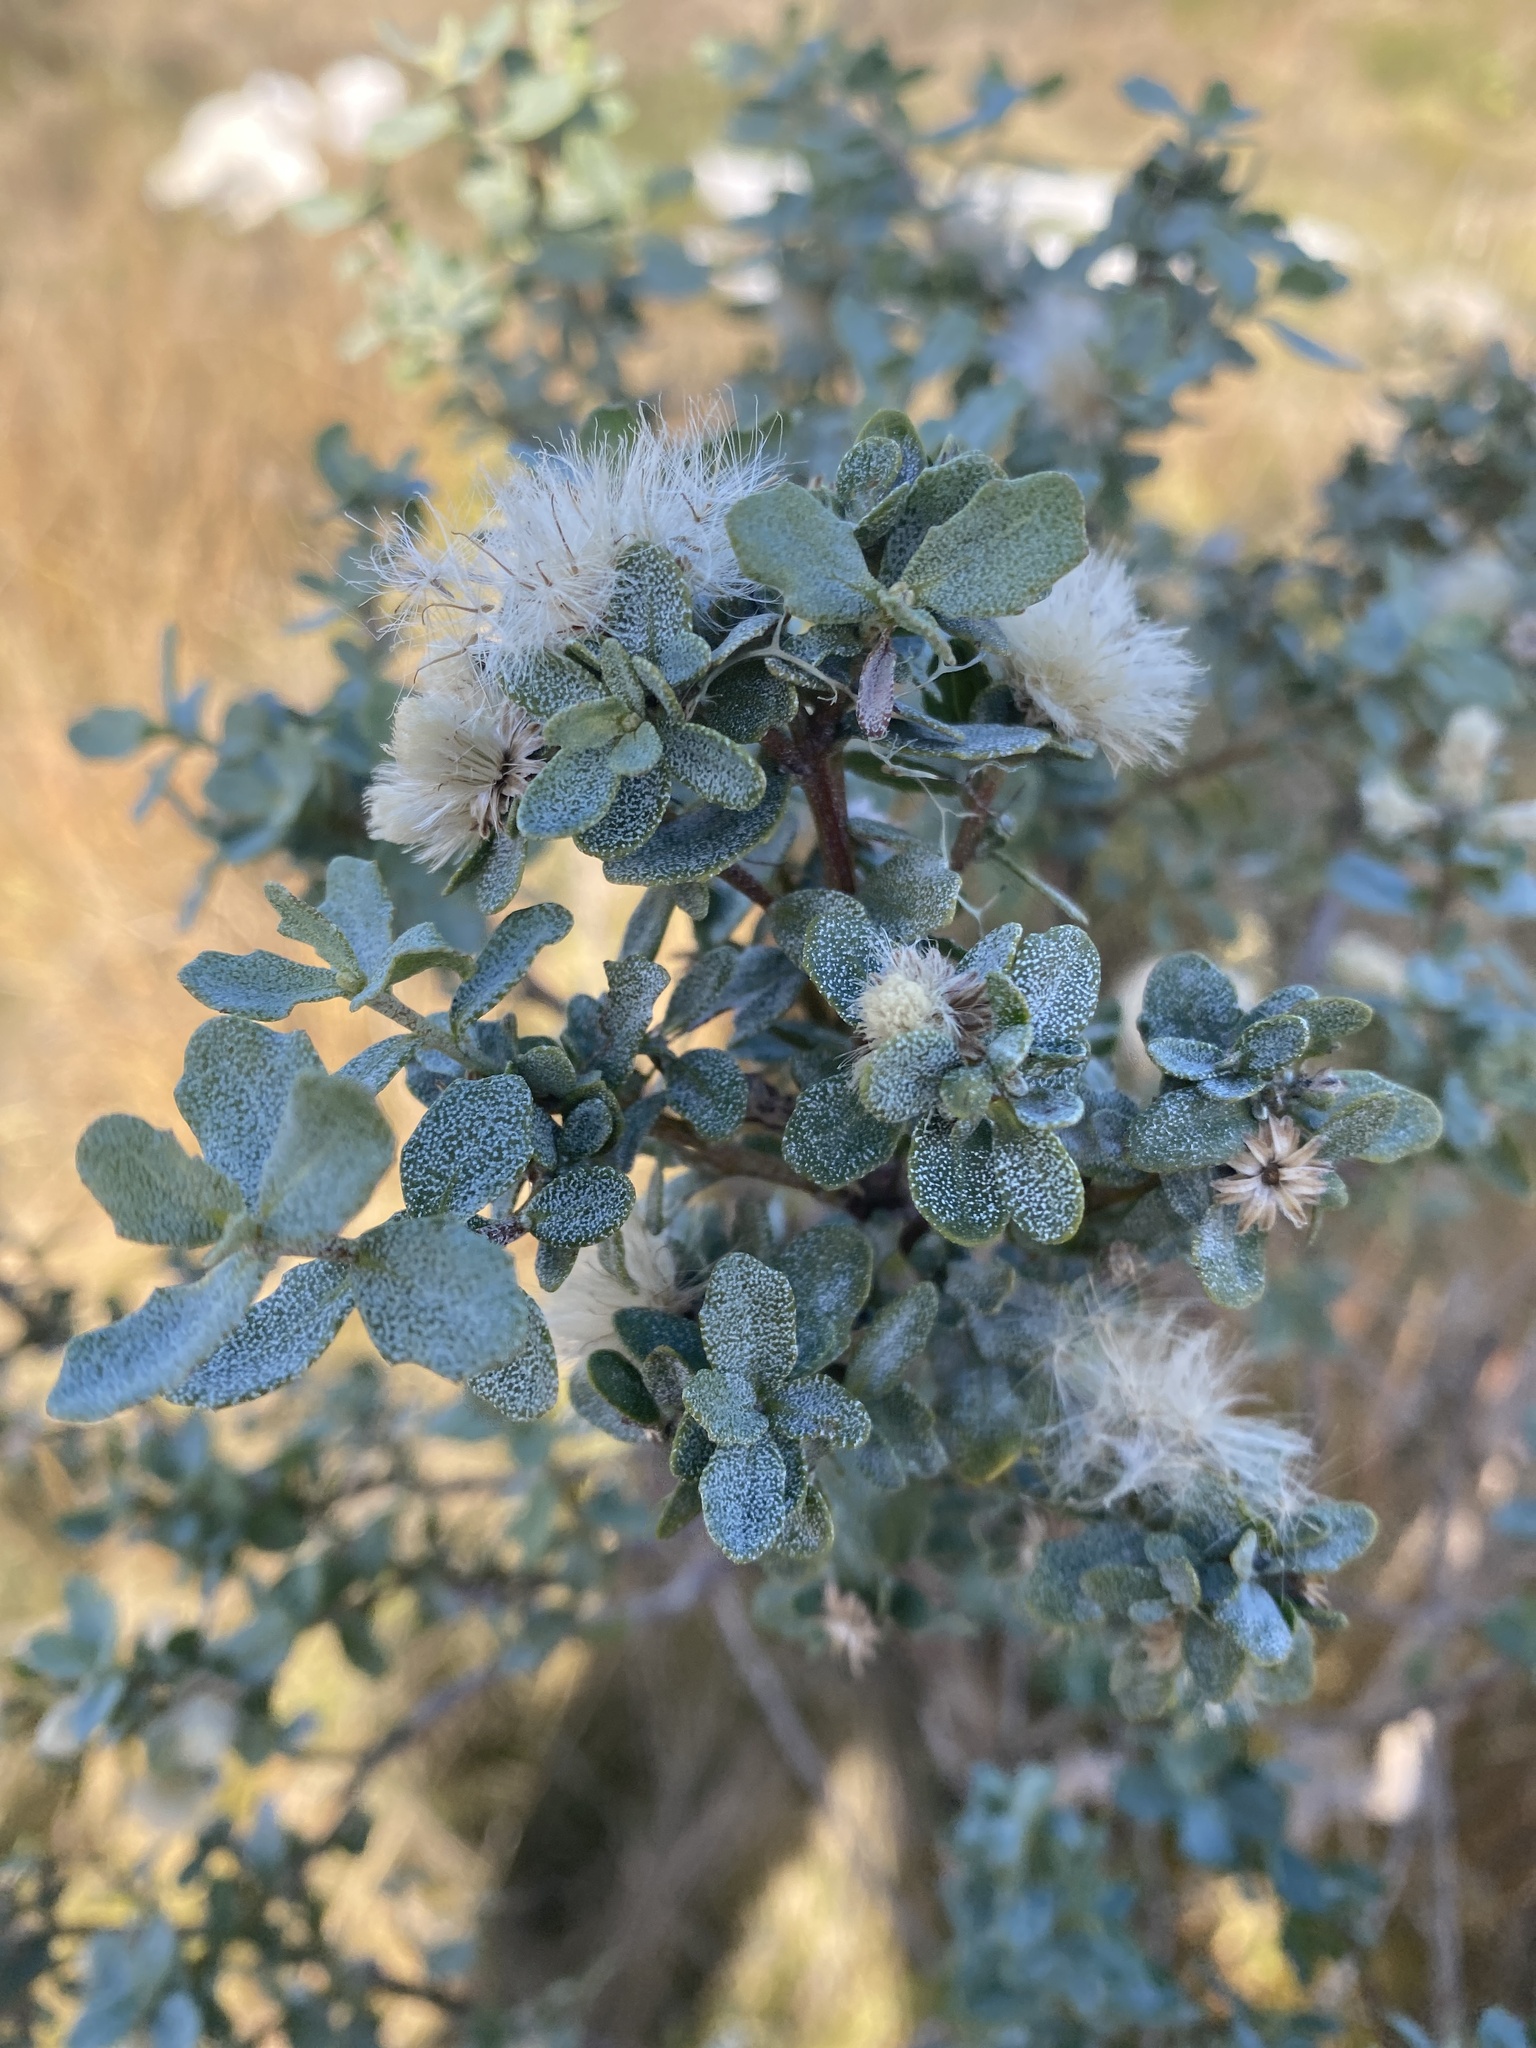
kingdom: Plantae
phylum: Tracheophyta
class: Magnoliopsida
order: Asterales
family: Asteraceae
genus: Baccharis
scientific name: Baccharis pilularis
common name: Coyotebrush
